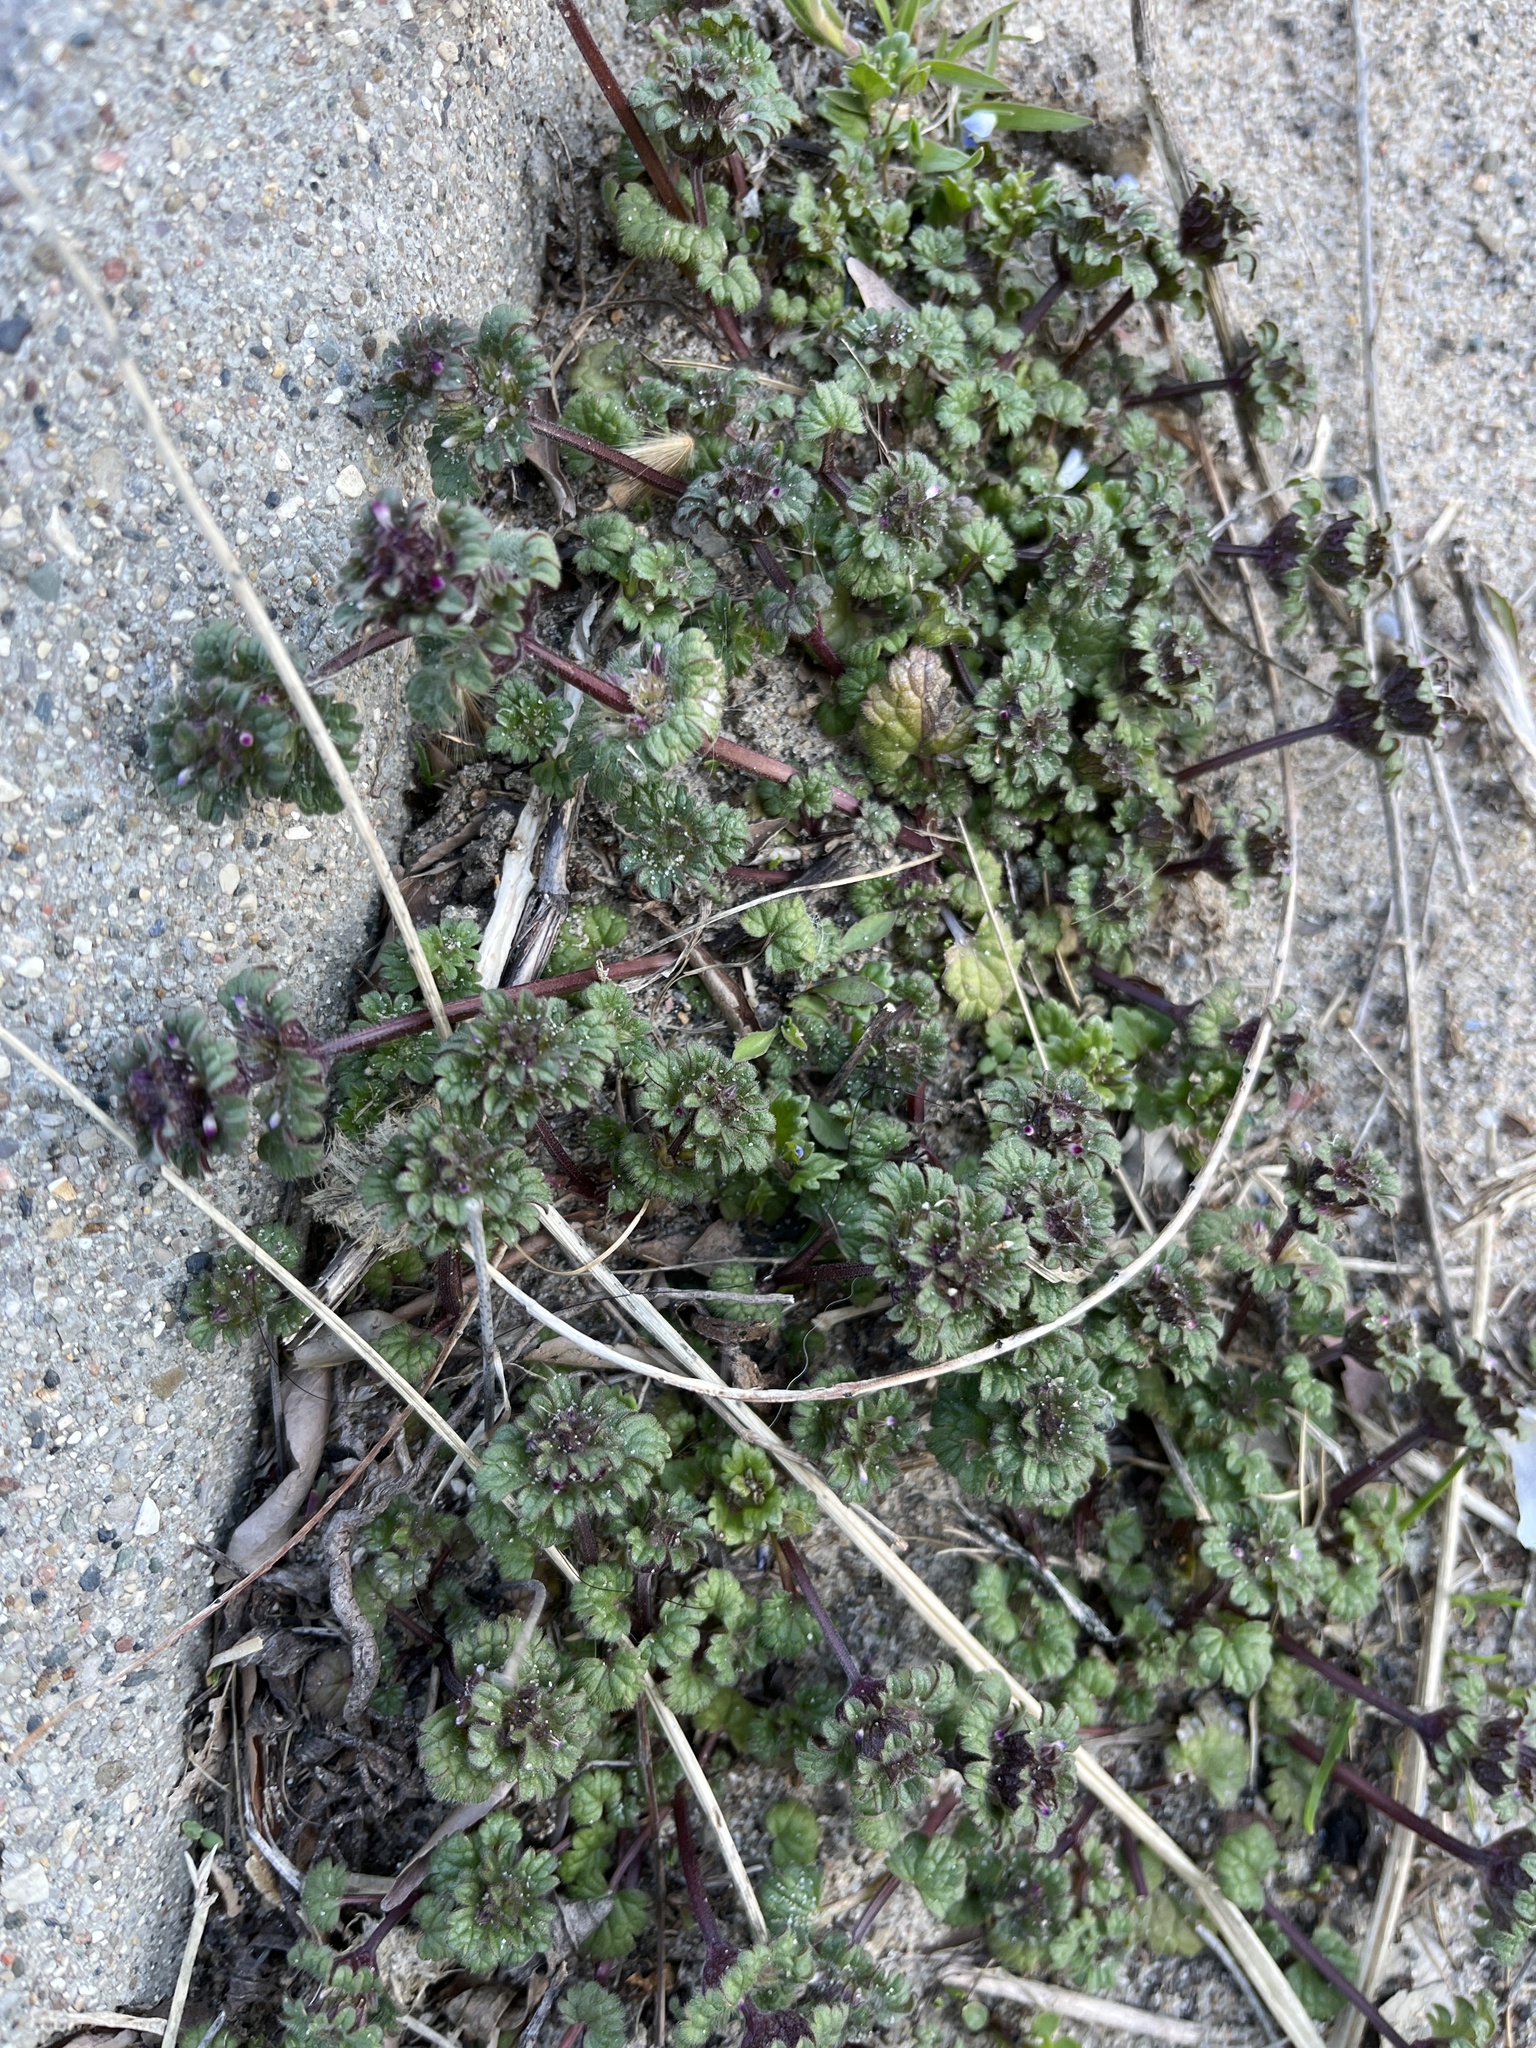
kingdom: Plantae
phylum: Tracheophyta
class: Magnoliopsida
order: Lamiales
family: Lamiaceae
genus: Lamium
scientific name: Lamium amplexicaule
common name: Henbit dead-nettle
